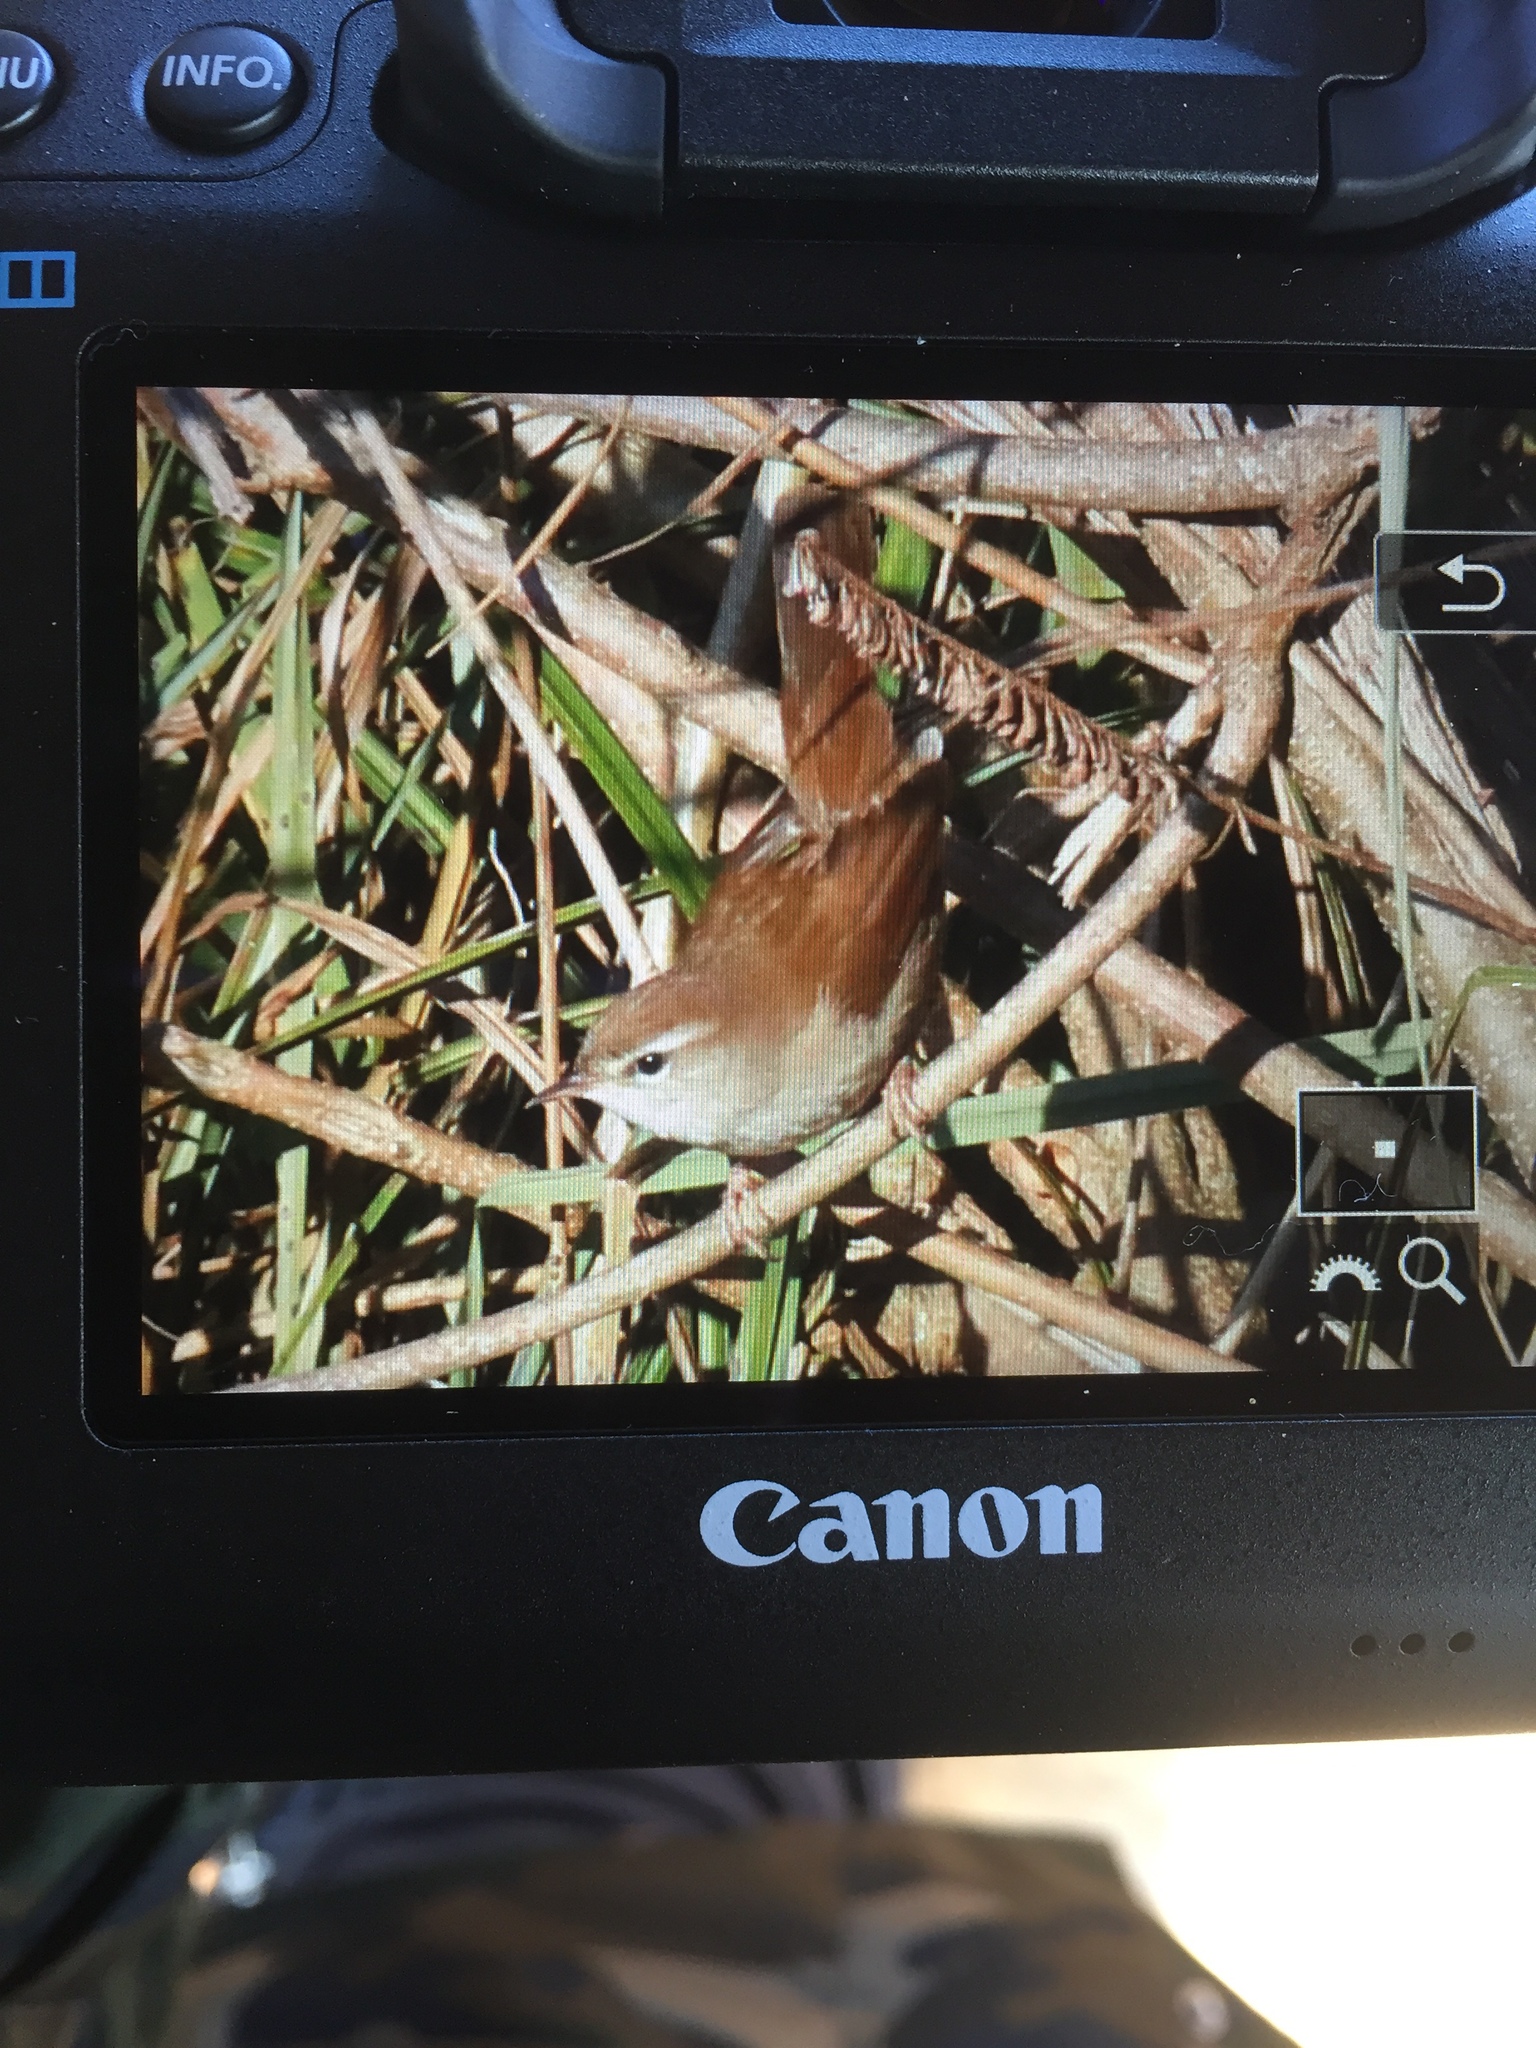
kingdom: Animalia
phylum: Chordata
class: Aves
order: Passeriformes
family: Cettiidae
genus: Cettia
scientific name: Cettia cetti
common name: Cetti's warbler
